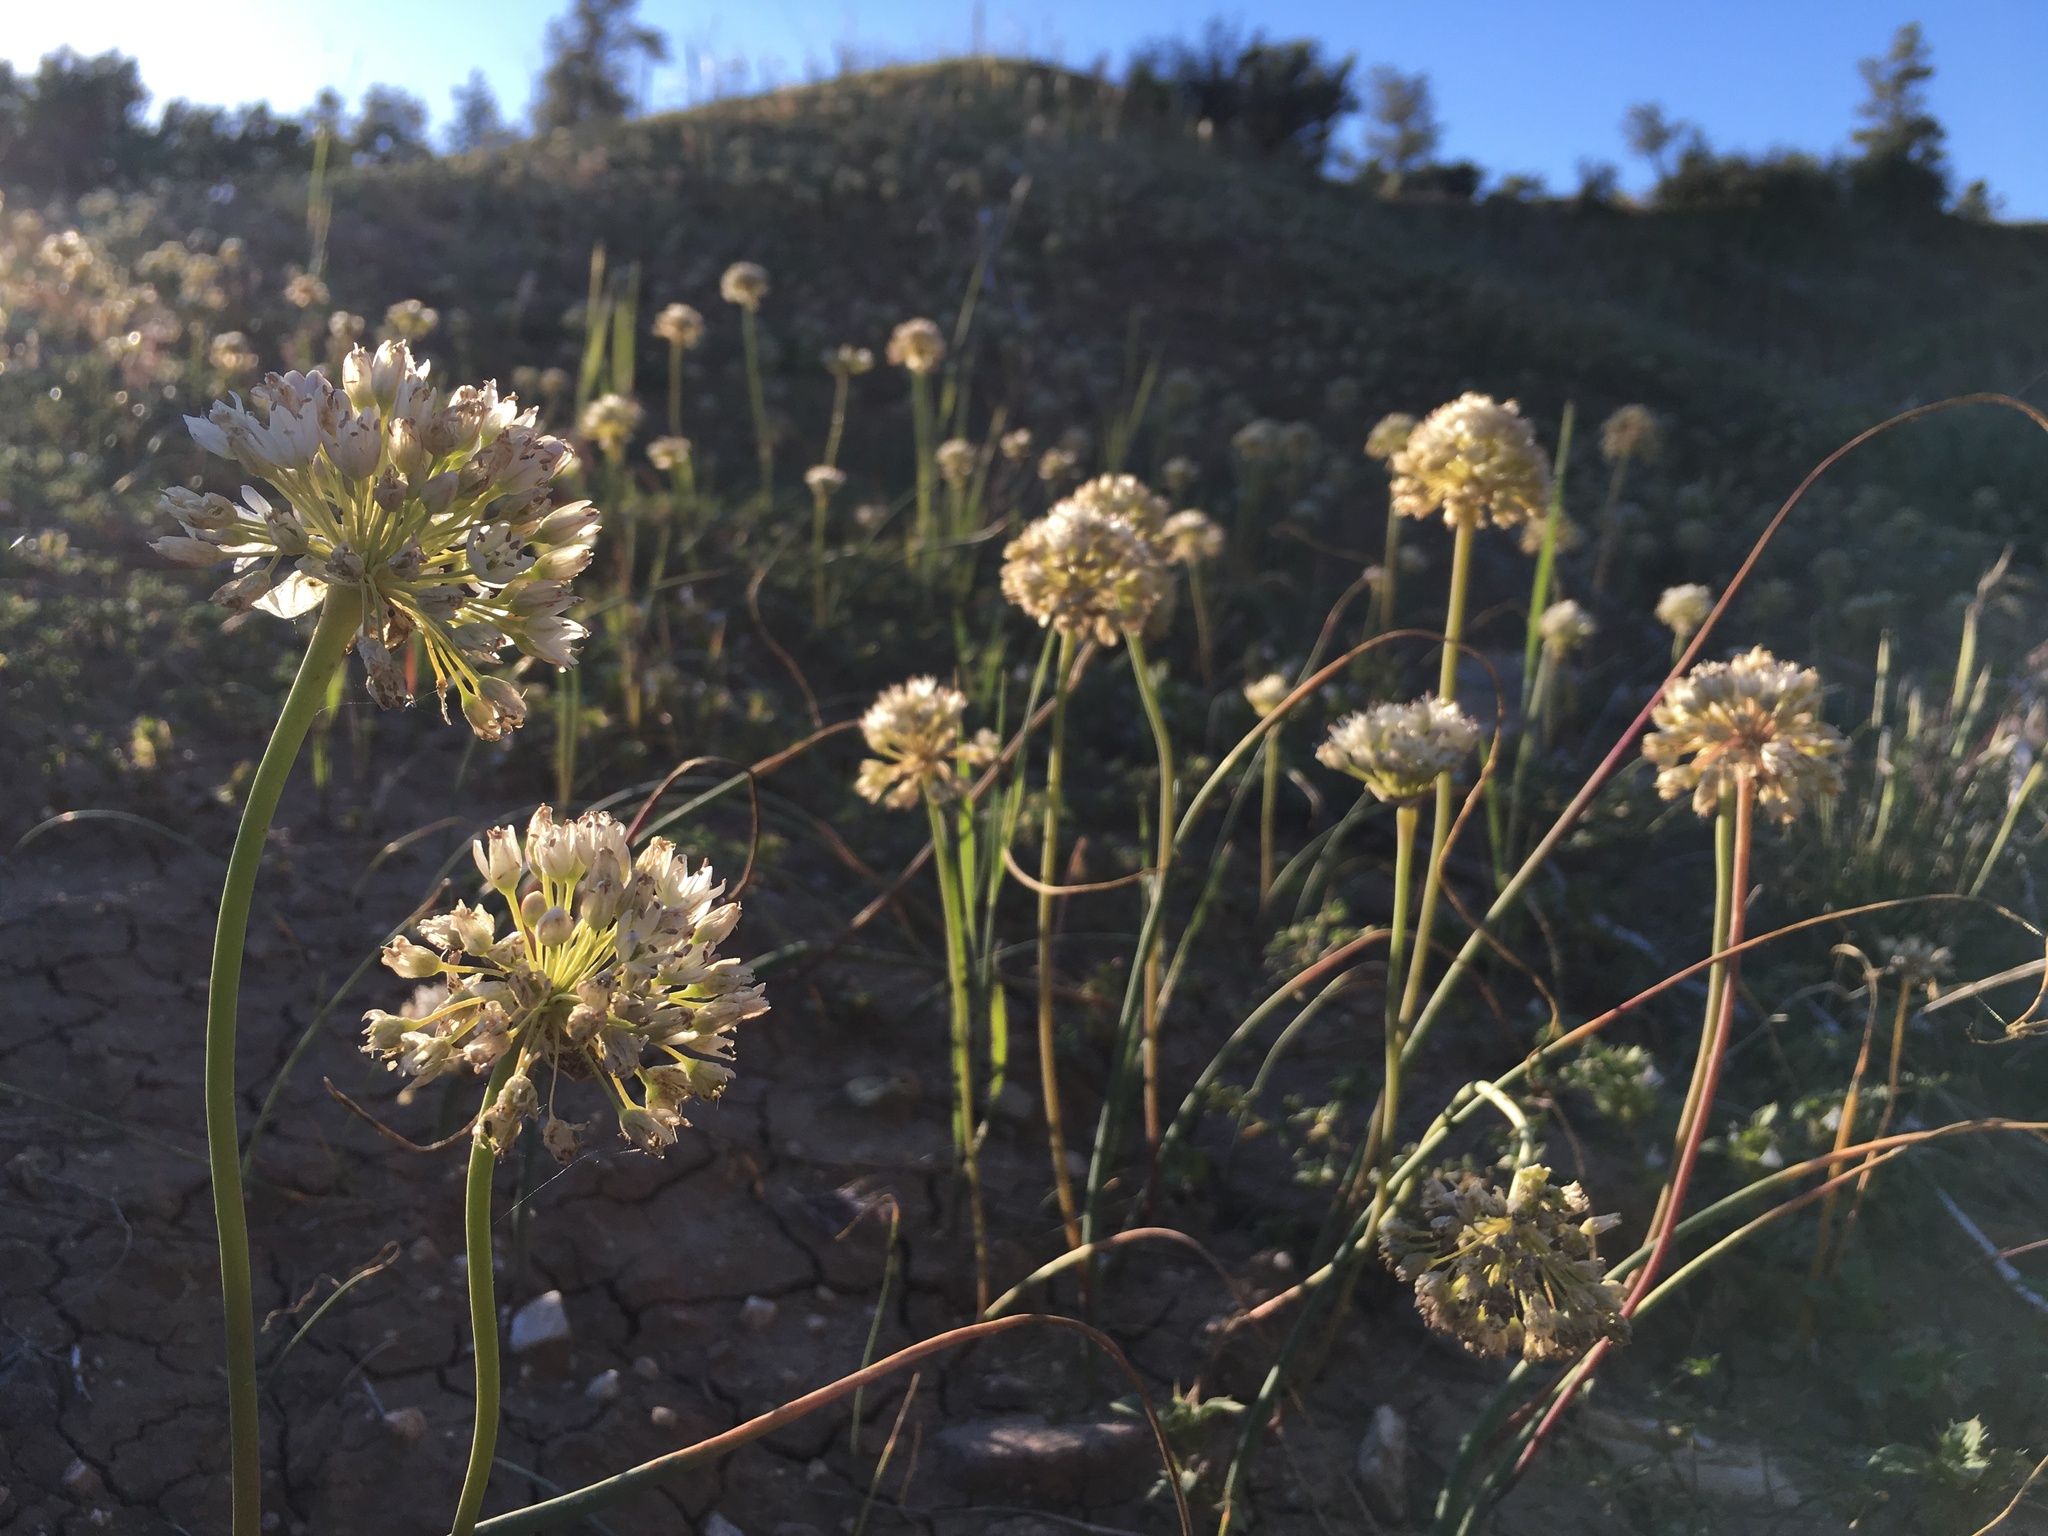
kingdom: Plantae
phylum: Tracheophyta
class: Liliopsida
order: Asparagales
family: Amaryllidaceae
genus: Allium
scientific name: Allium howellii
